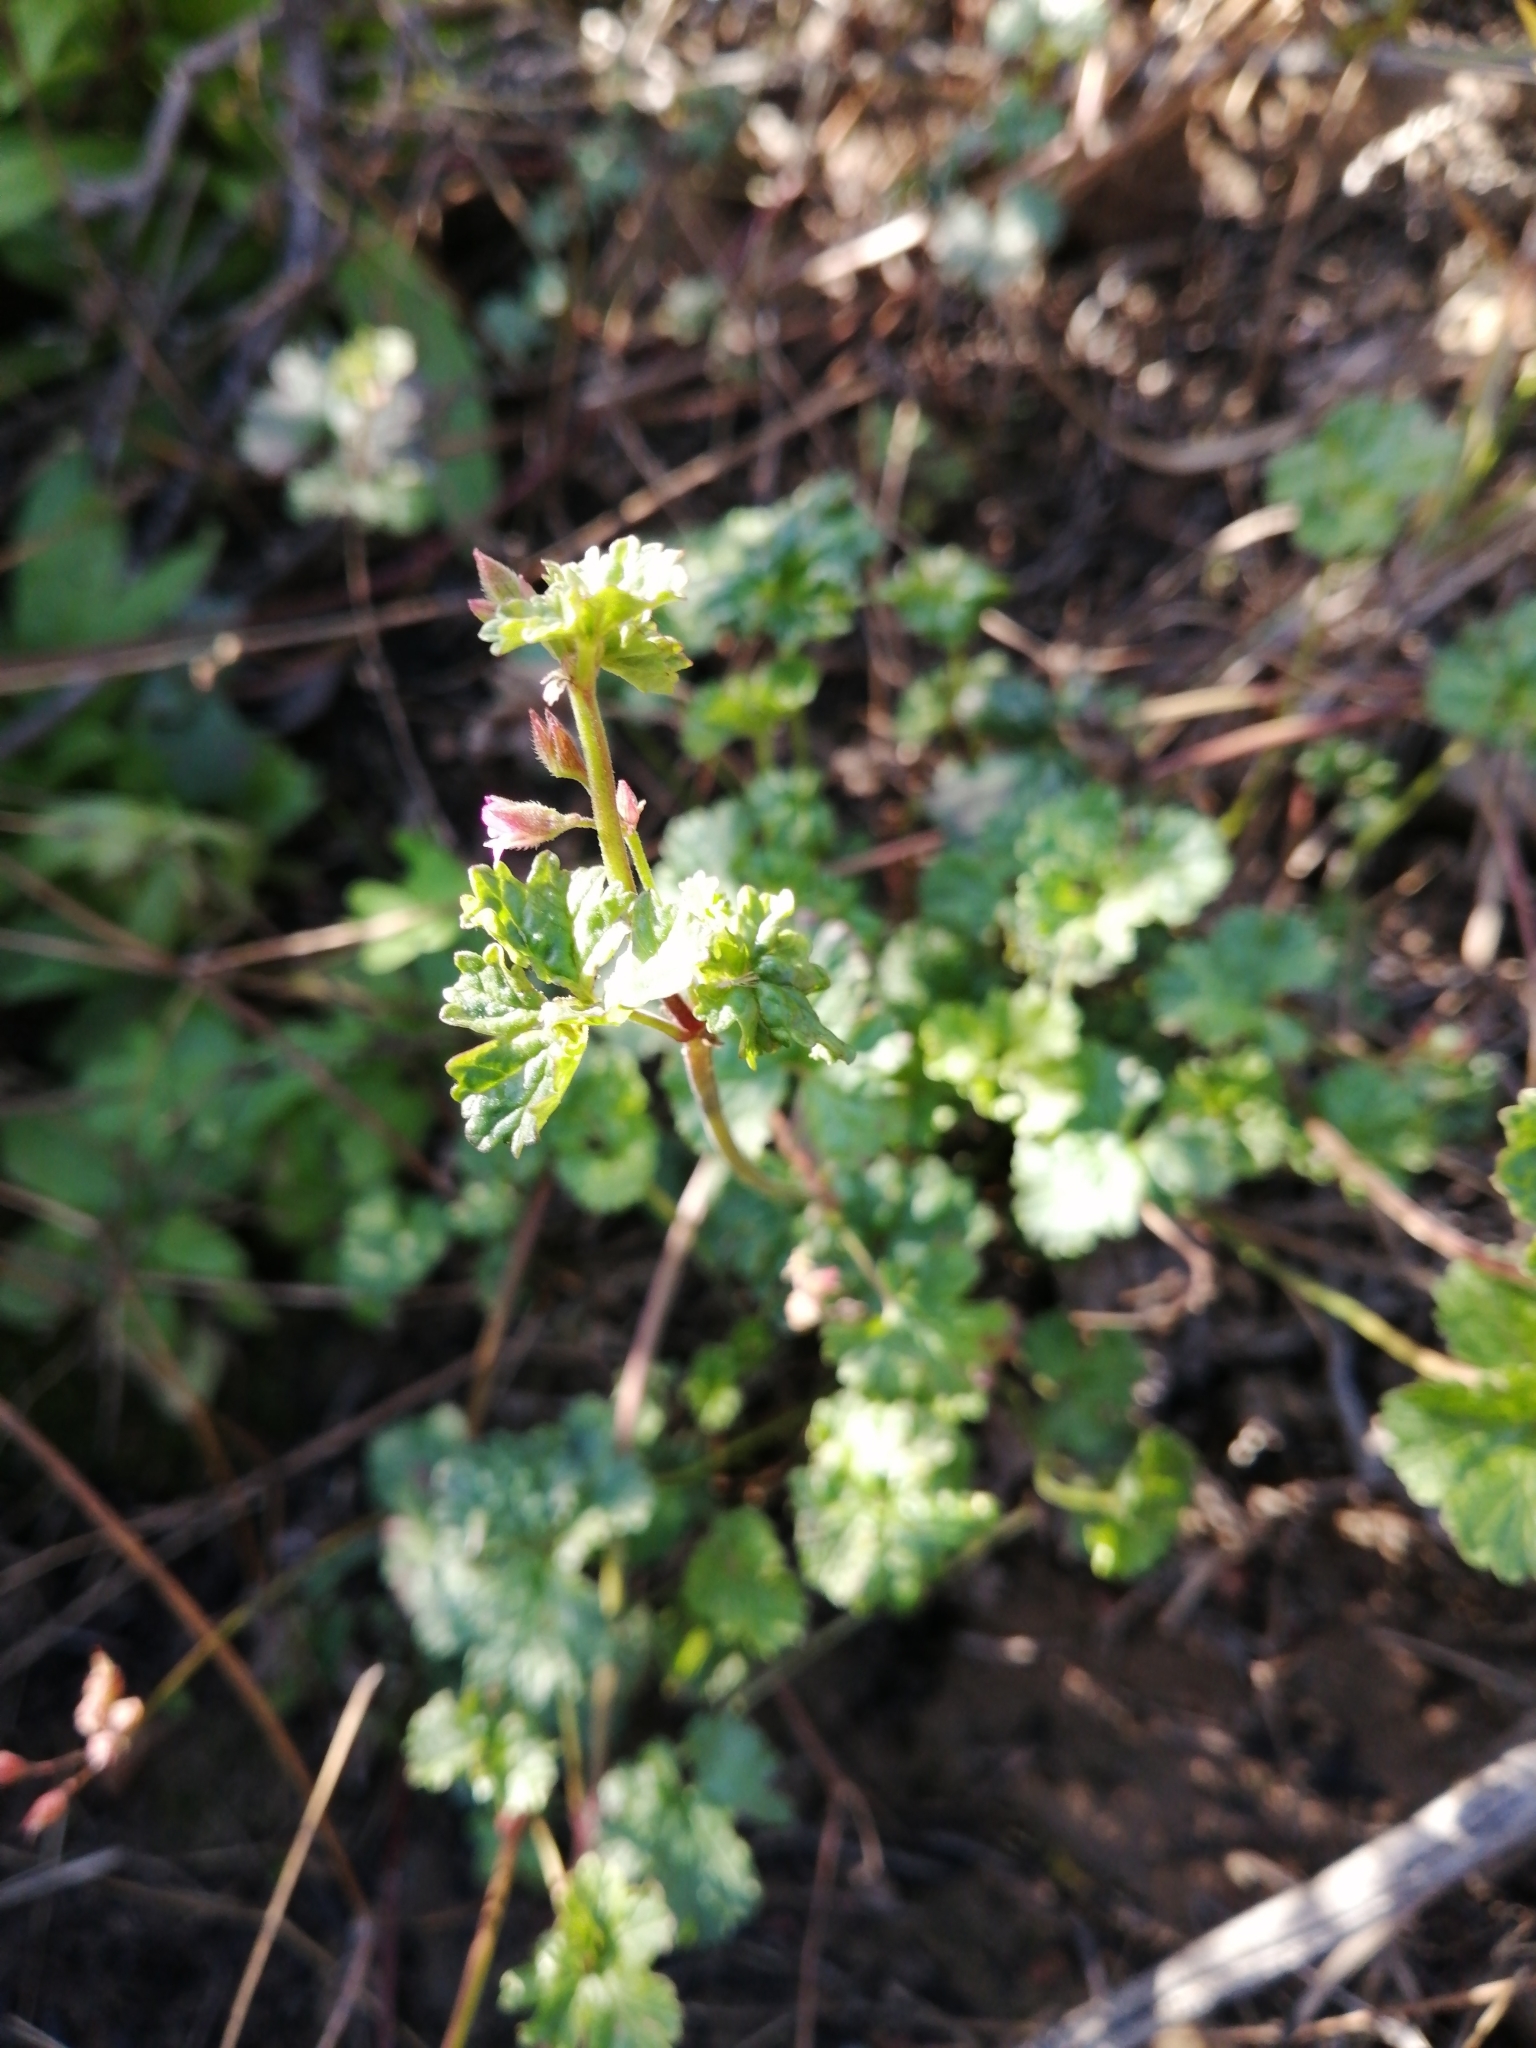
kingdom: Plantae
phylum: Tracheophyta
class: Magnoliopsida
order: Geraniales
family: Geraniaceae
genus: Pelargonium
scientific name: Pelargonium grossularioides
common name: Gooseberry geranium
